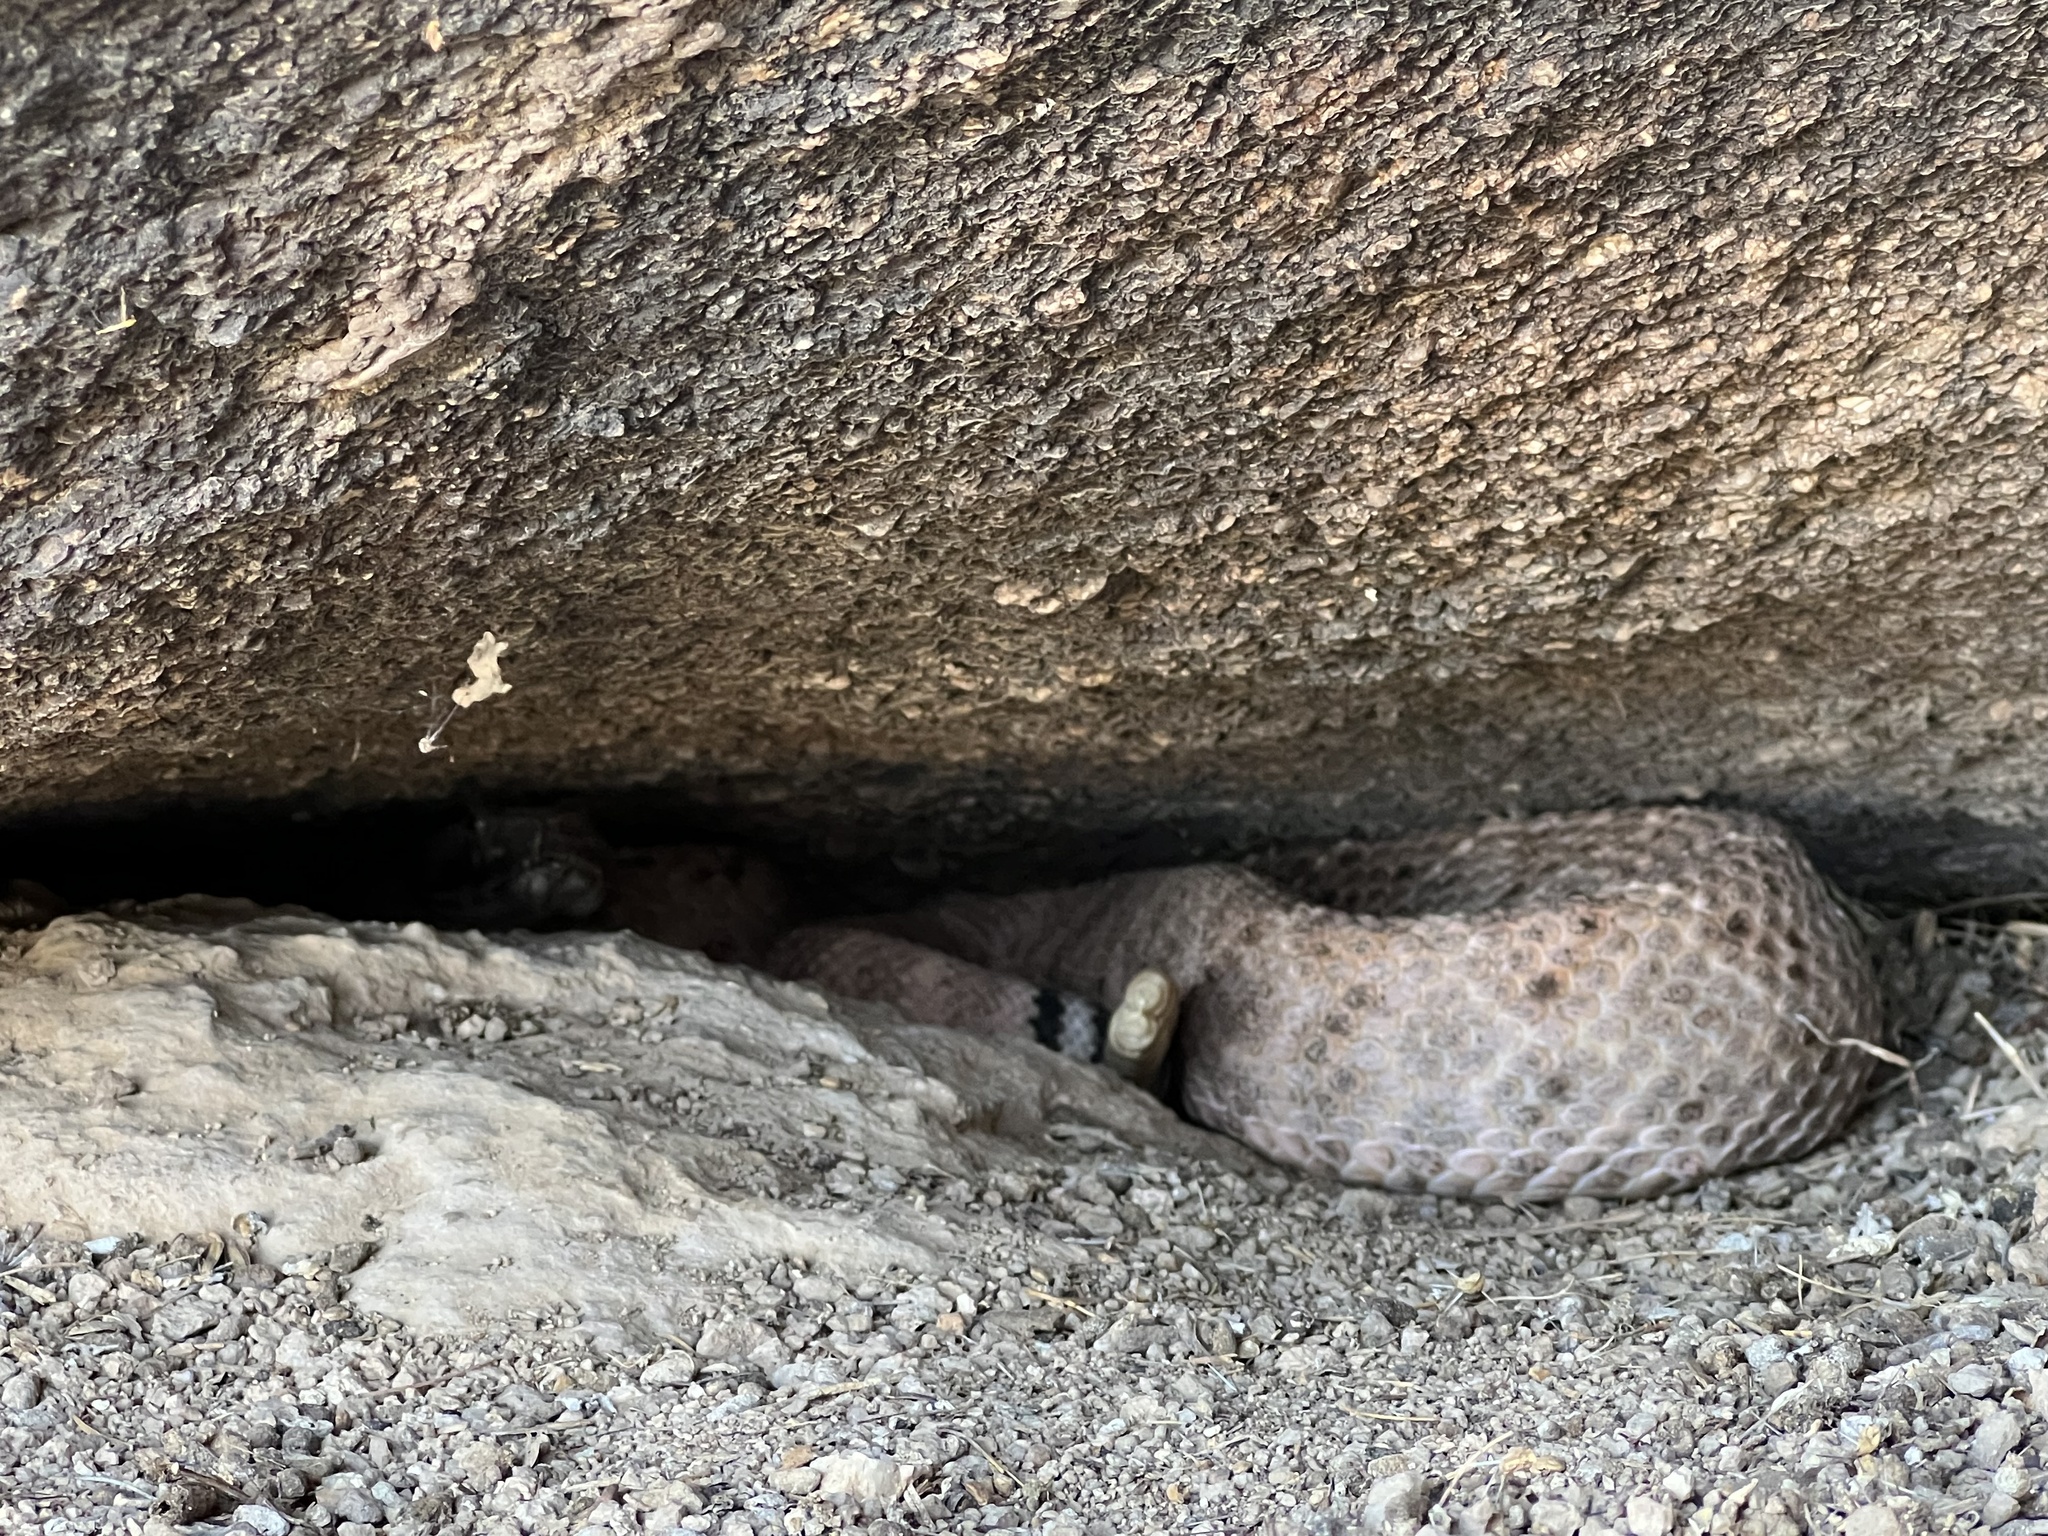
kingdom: Animalia
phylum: Chordata
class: Squamata
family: Viperidae
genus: Crotalus
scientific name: Crotalus atrox
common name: Western diamond-backed rattlesnake
